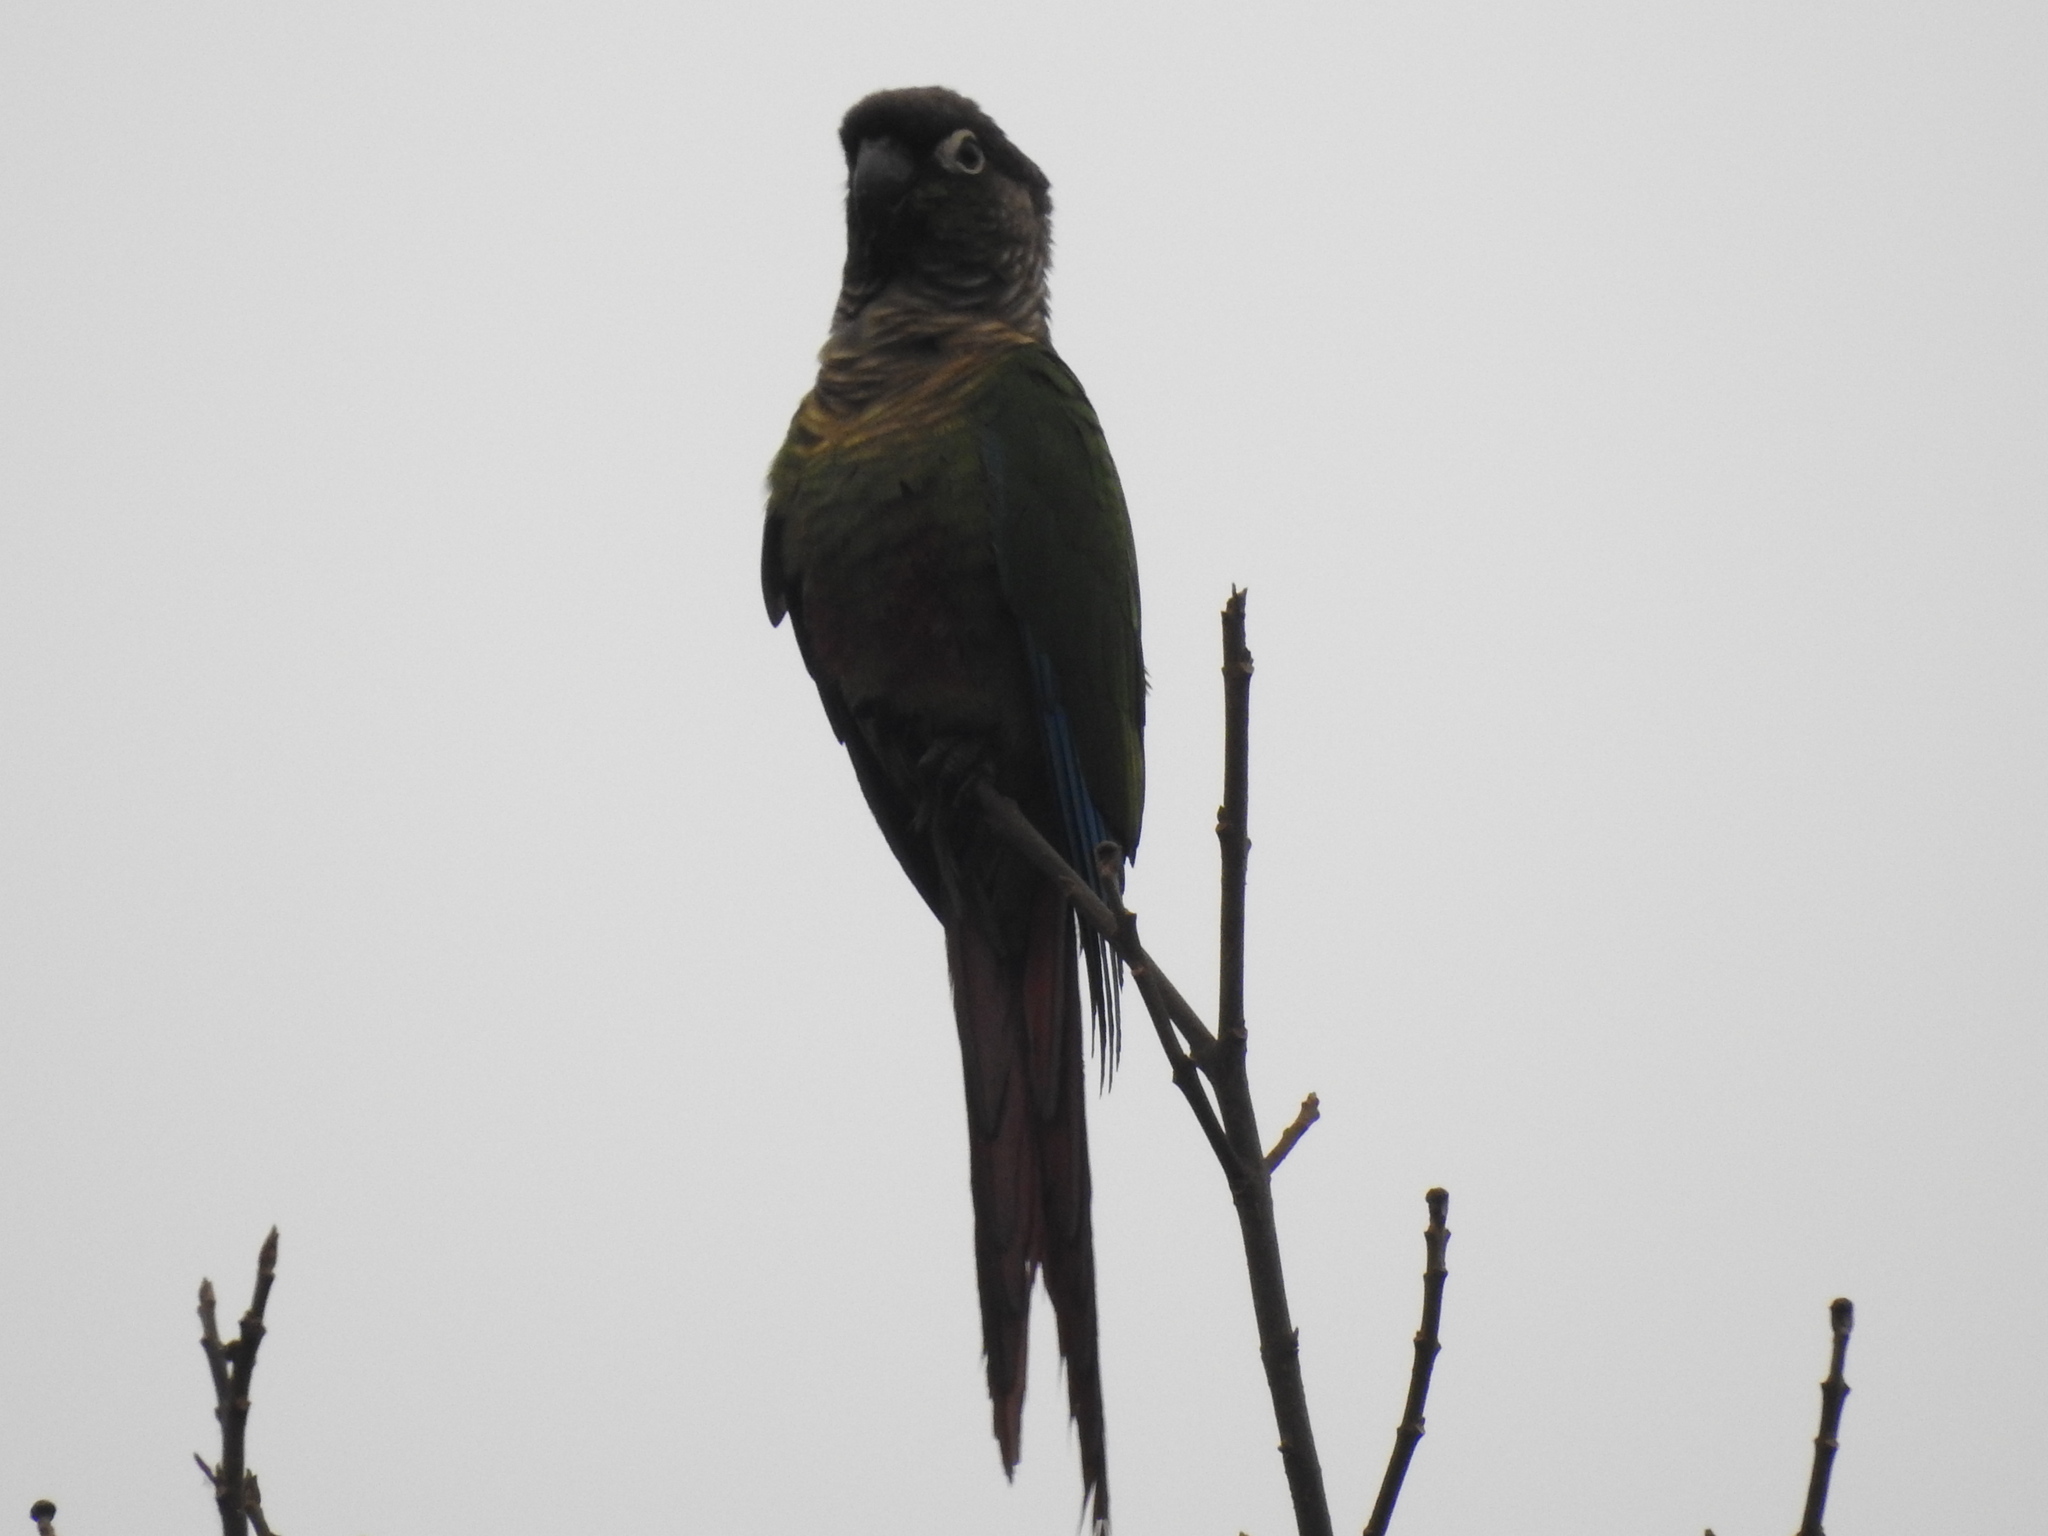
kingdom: Animalia
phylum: Chordata
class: Aves
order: Psittaciformes
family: Psittacidae
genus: Pyrrhura
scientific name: Pyrrhura molinae
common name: Green-cheeked parakeet
